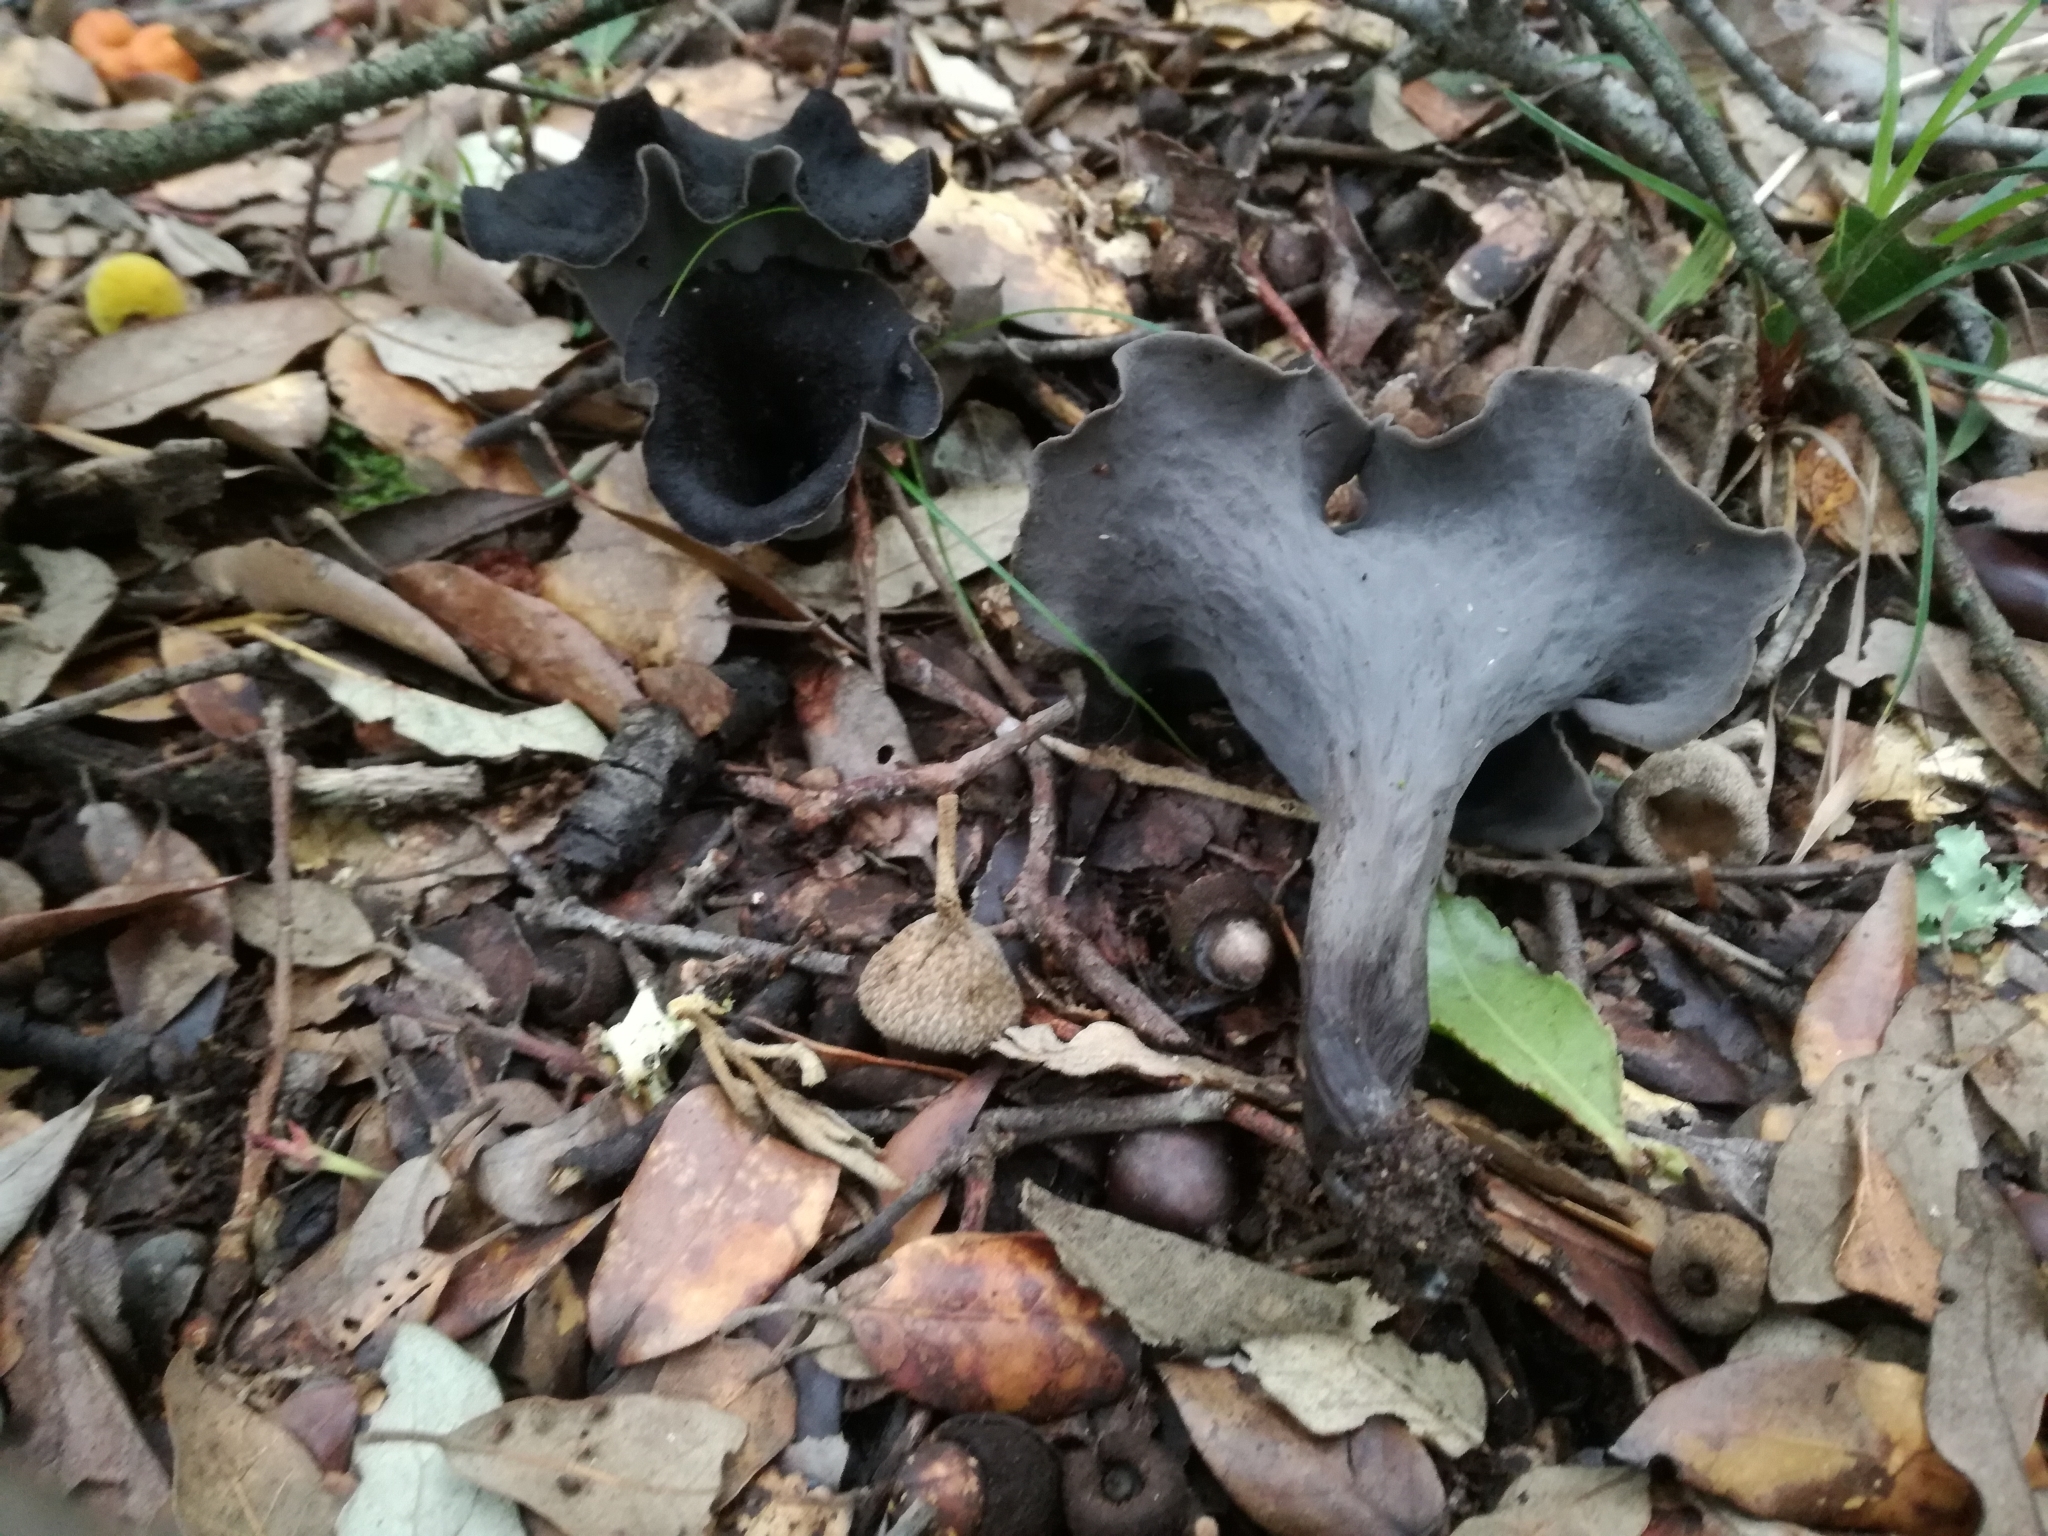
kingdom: Fungi
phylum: Basidiomycota
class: Agaricomycetes
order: Cantharellales
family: Hydnaceae
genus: Craterellus
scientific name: Craterellus cornucopioides
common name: Horn of plenty
